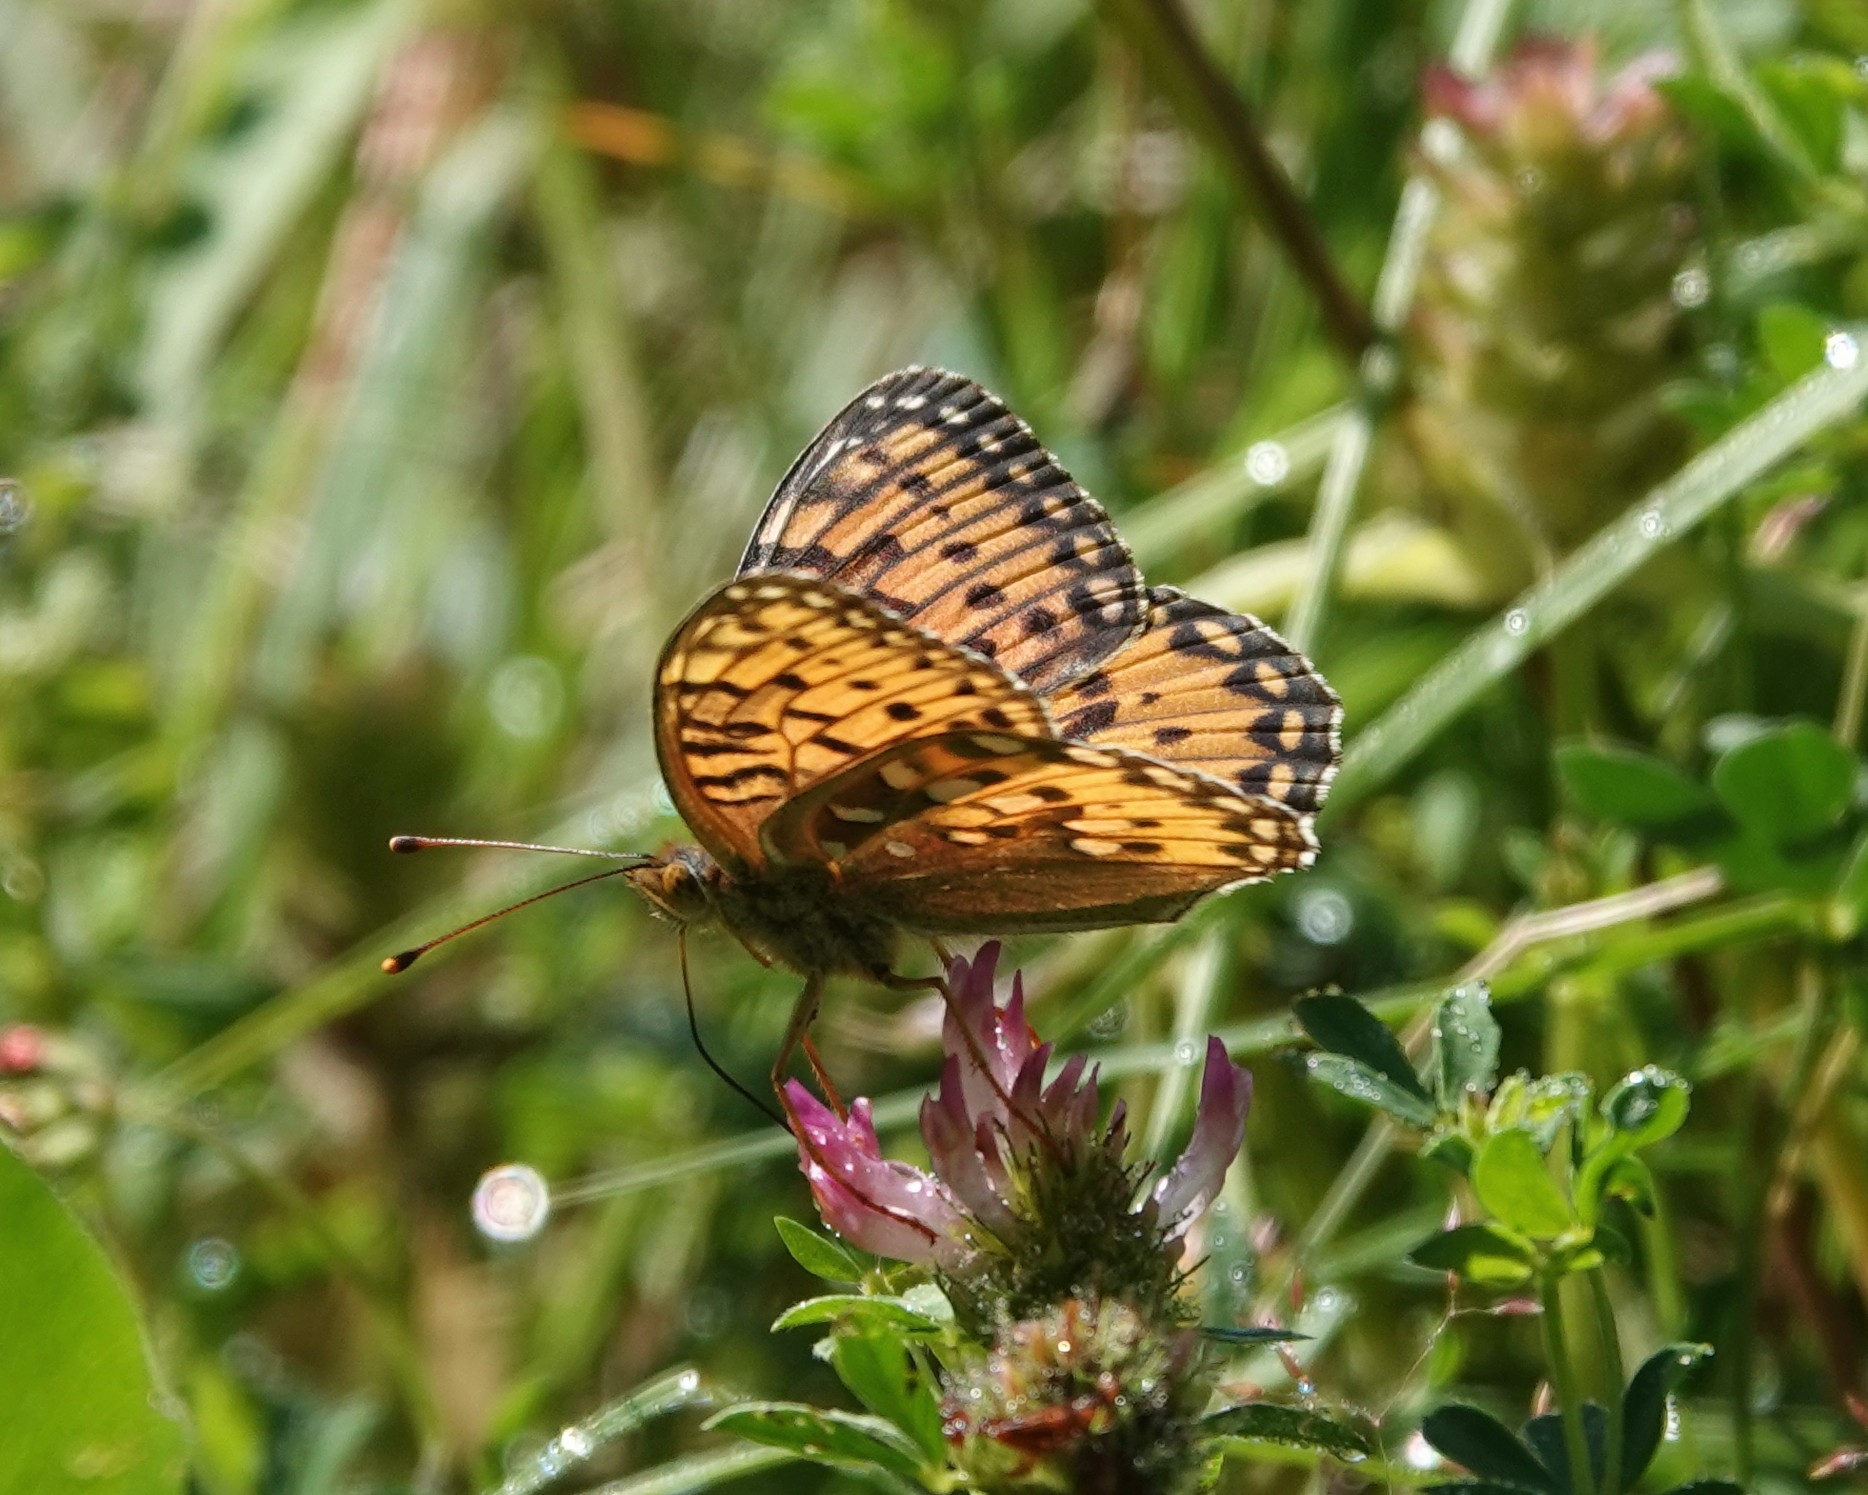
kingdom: Animalia
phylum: Arthropoda
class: Insecta
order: Lepidoptera
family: Nymphalidae
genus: Speyeria
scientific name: Speyeria aglaja
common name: Dark green fritillary
